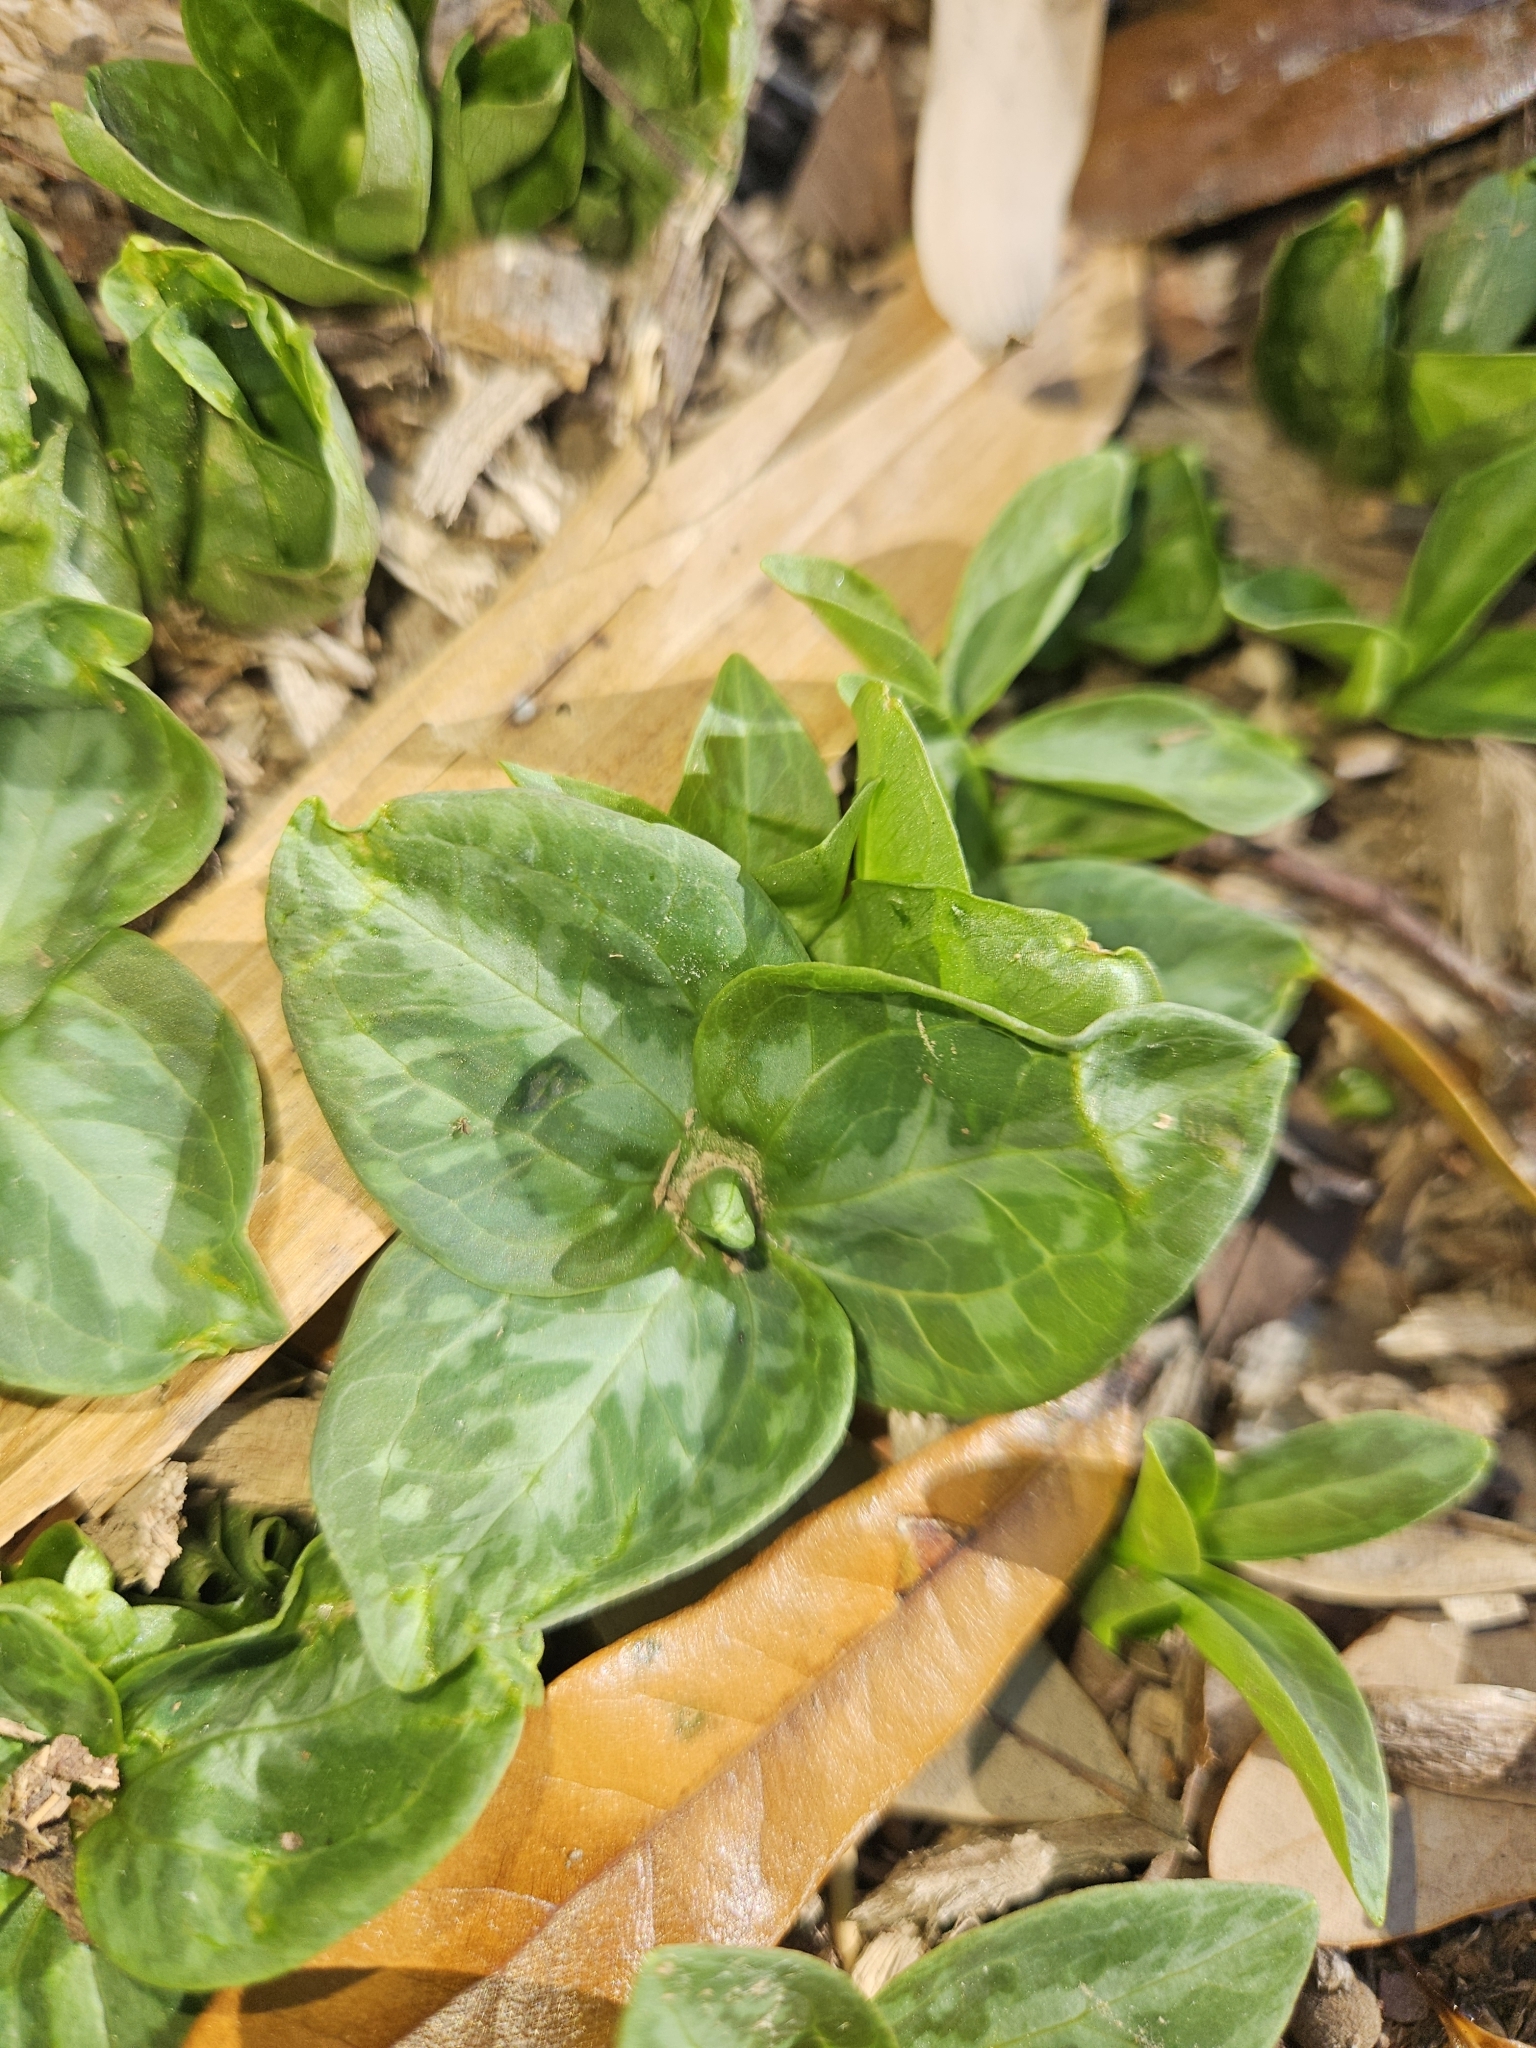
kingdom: Plantae
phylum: Tracheophyta
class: Liliopsida
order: Liliales
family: Melanthiaceae
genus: Trillium
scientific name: Trillium foetidissimum
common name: Mississippi river trillium
